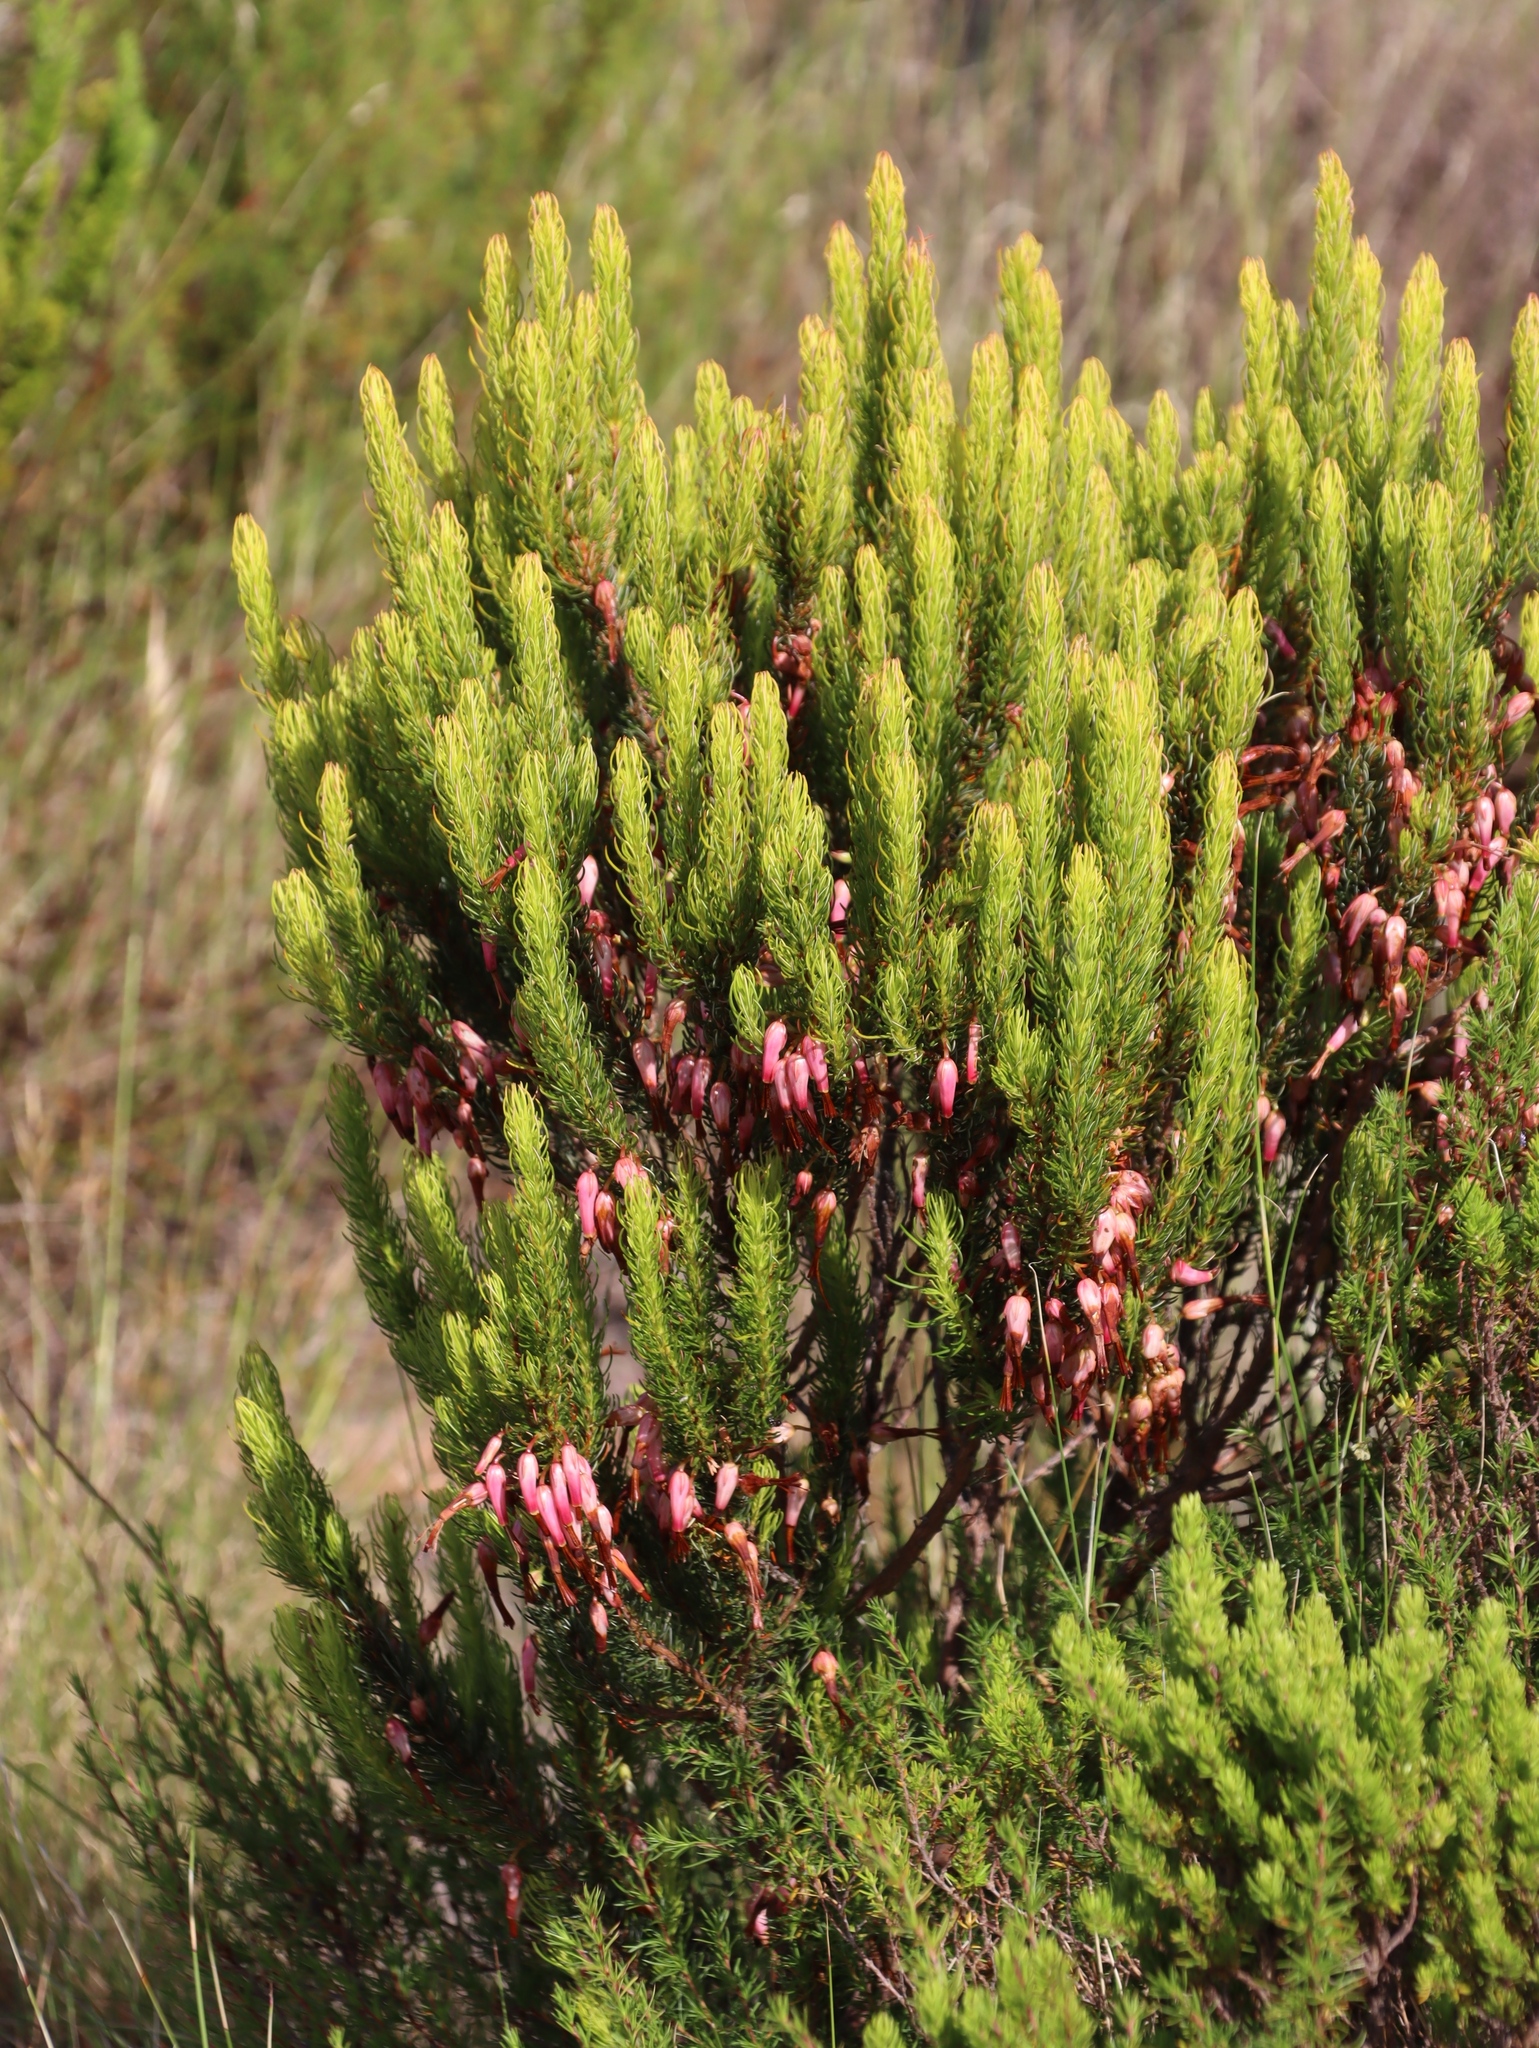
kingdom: Plantae
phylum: Tracheophyta
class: Magnoliopsida
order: Ericales
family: Ericaceae
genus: Erica
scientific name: Erica plukenetii
